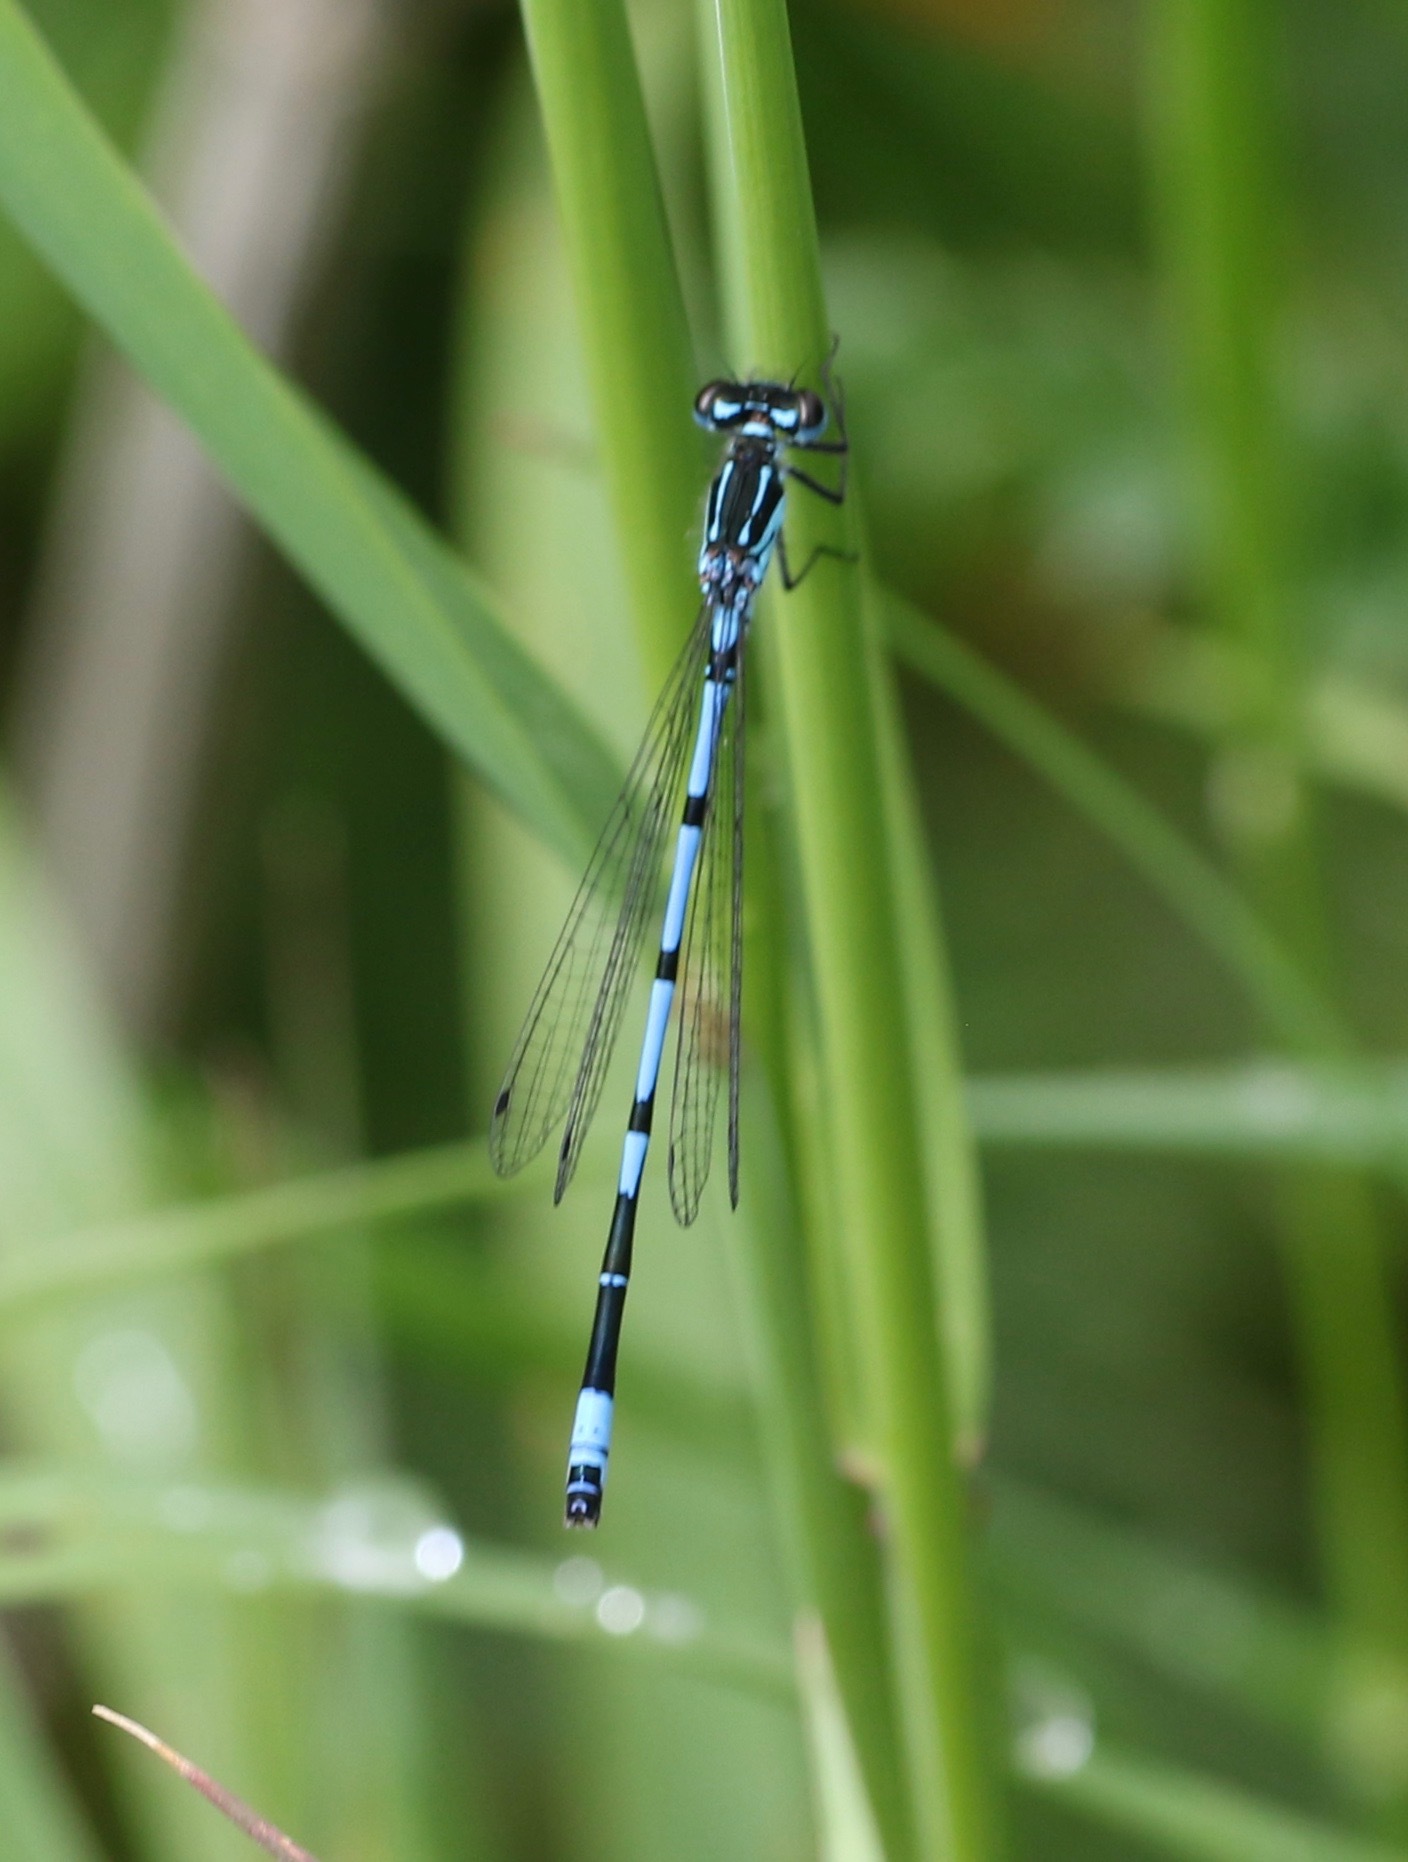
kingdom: Animalia
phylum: Arthropoda
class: Insecta
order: Odonata
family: Coenagrionidae
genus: Coenagrion
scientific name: Coenagrion pulchellum
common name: Variable bluet
